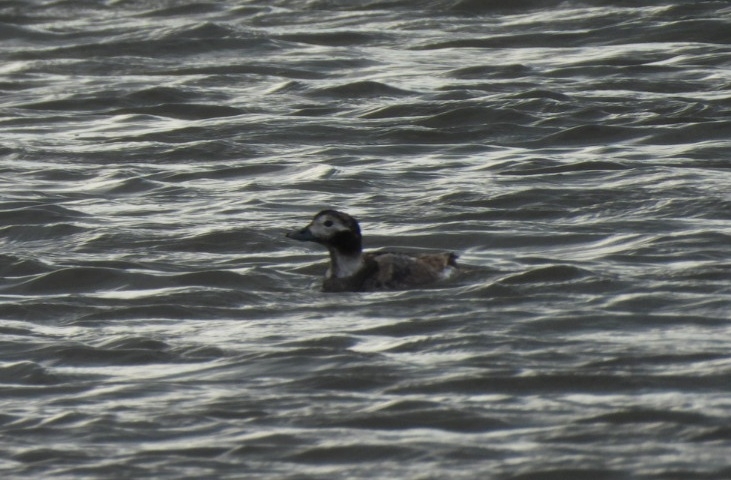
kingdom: Animalia
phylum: Chordata
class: Aves
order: Anseriformes
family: Anatidae
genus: Clangula
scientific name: Clangula hyemalis
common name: Long-tailed duck
